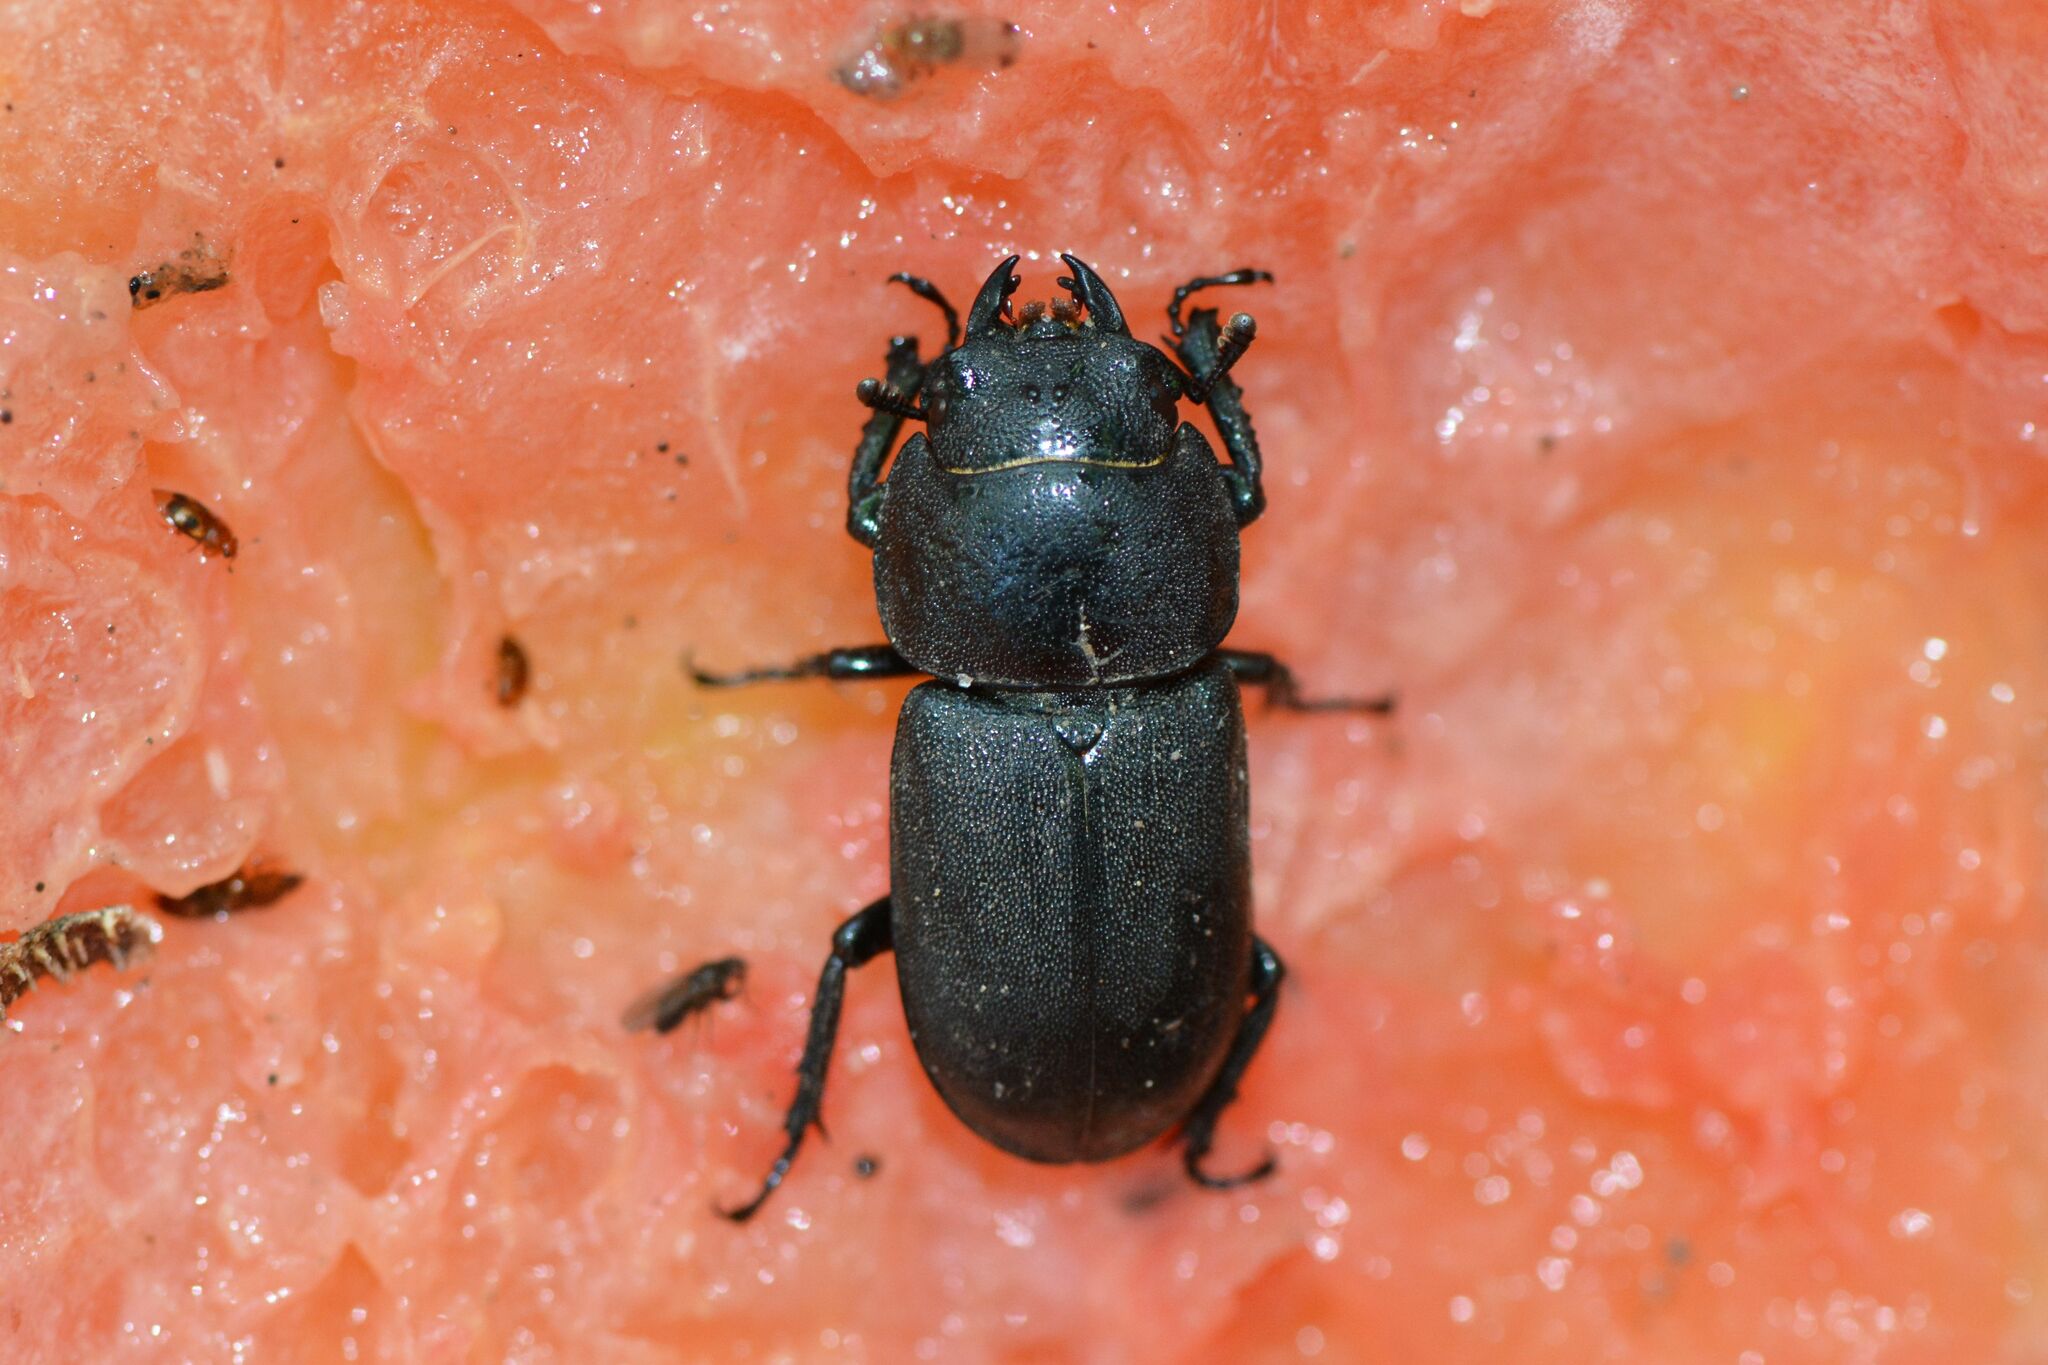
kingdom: Animalia
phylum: Arthropoda
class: Insecta
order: Coleoptera
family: Lucanidae
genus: Dorcus
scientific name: Dorcus parallelipipedus
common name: Lesser stag beetle
